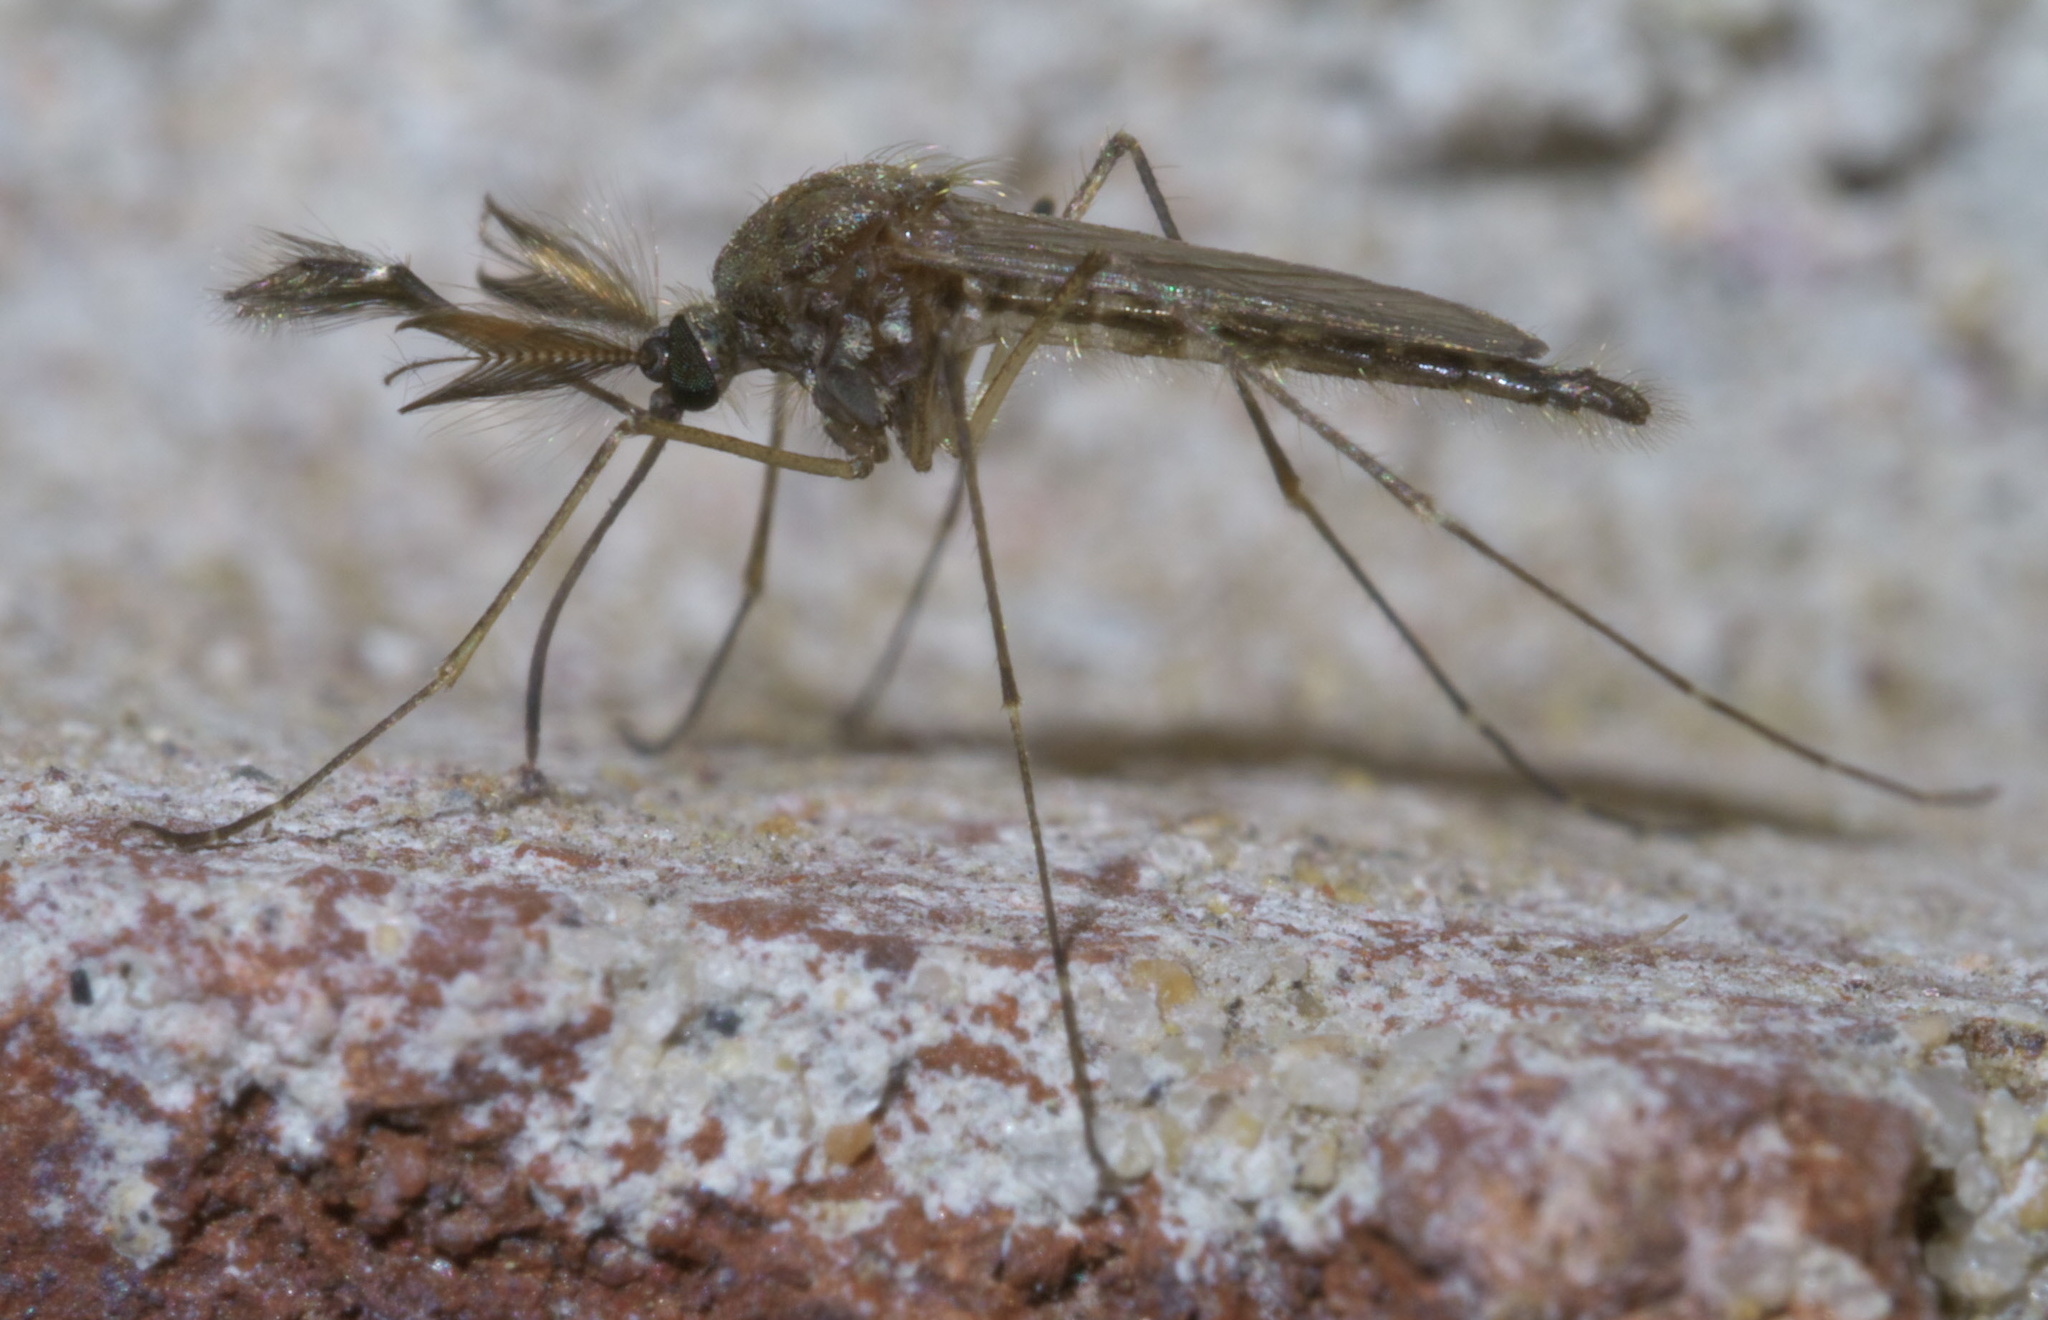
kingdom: Animalia
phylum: Arthropoda
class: Insecta
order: Diptera
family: Culicidae
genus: Aedes
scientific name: Aedes vexans
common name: Inland floodwater mosquito
